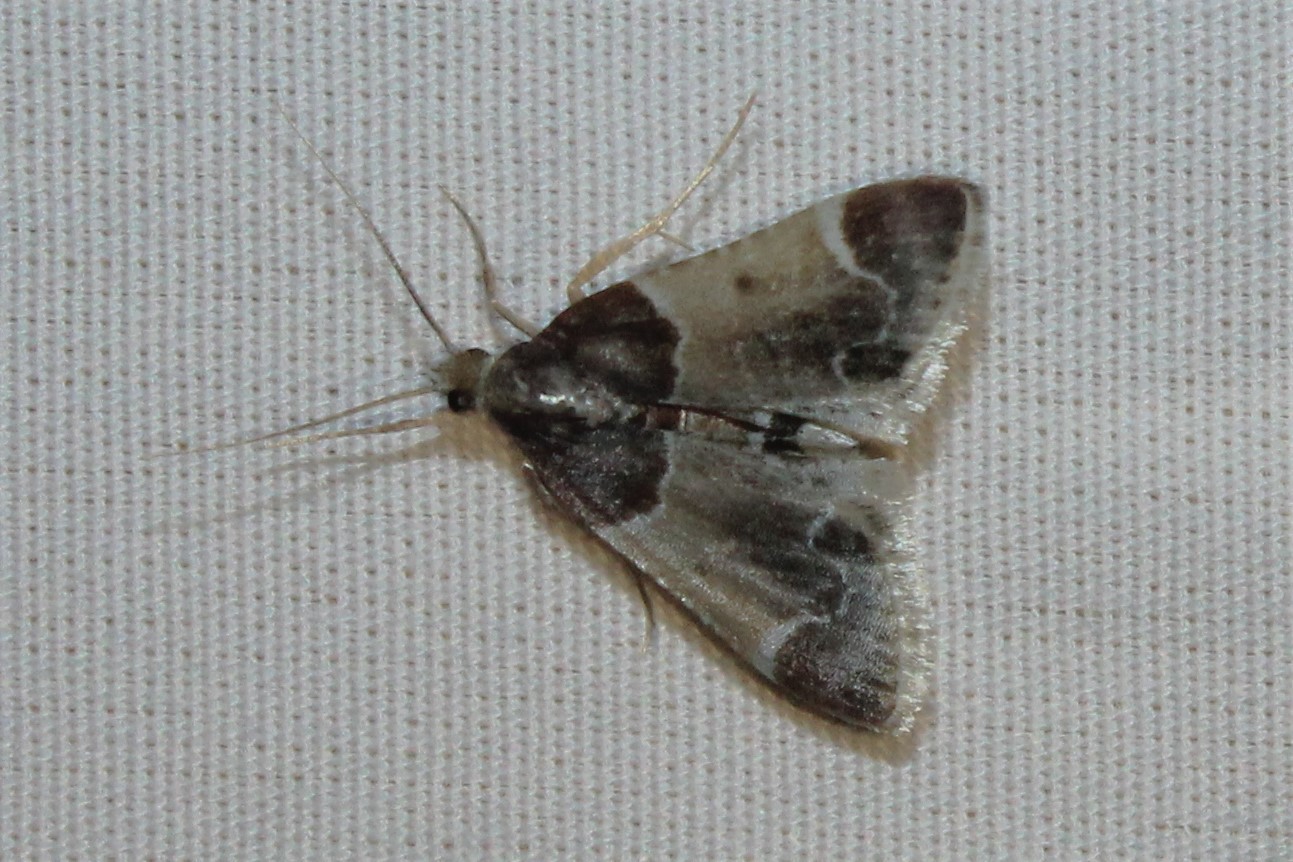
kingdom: Animalia
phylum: Arthropoda
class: Insecta
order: Lepidoptera
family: Pyralidae
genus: Pyralis
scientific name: Pyralis farinalis
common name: Meal moth
